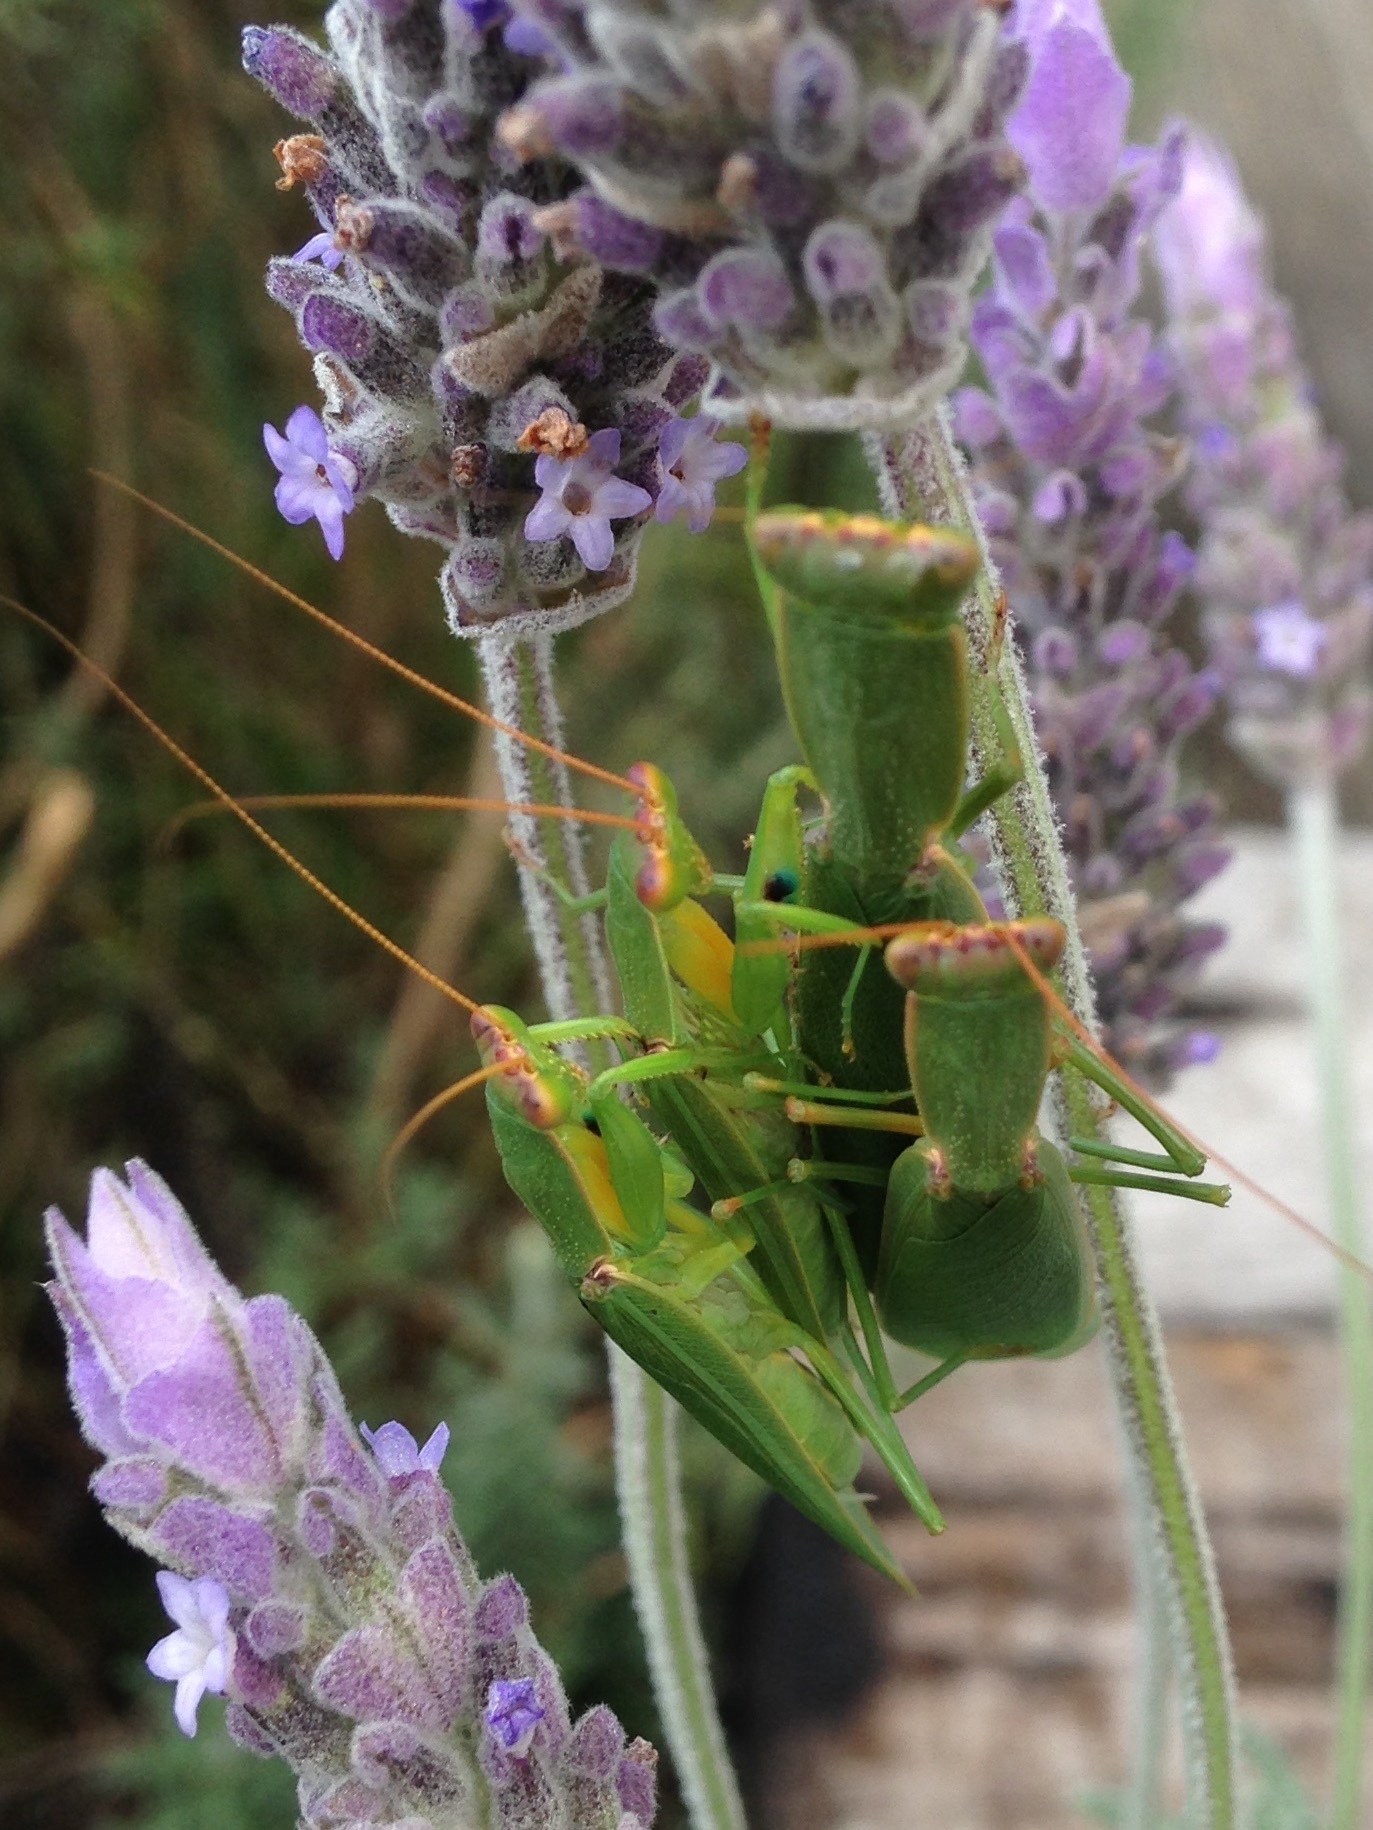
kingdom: Animalia
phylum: Arthropoda
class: Insecta
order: Mantodea
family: Mantidae
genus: Orthodera
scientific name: Orthodera novaezealandiae
